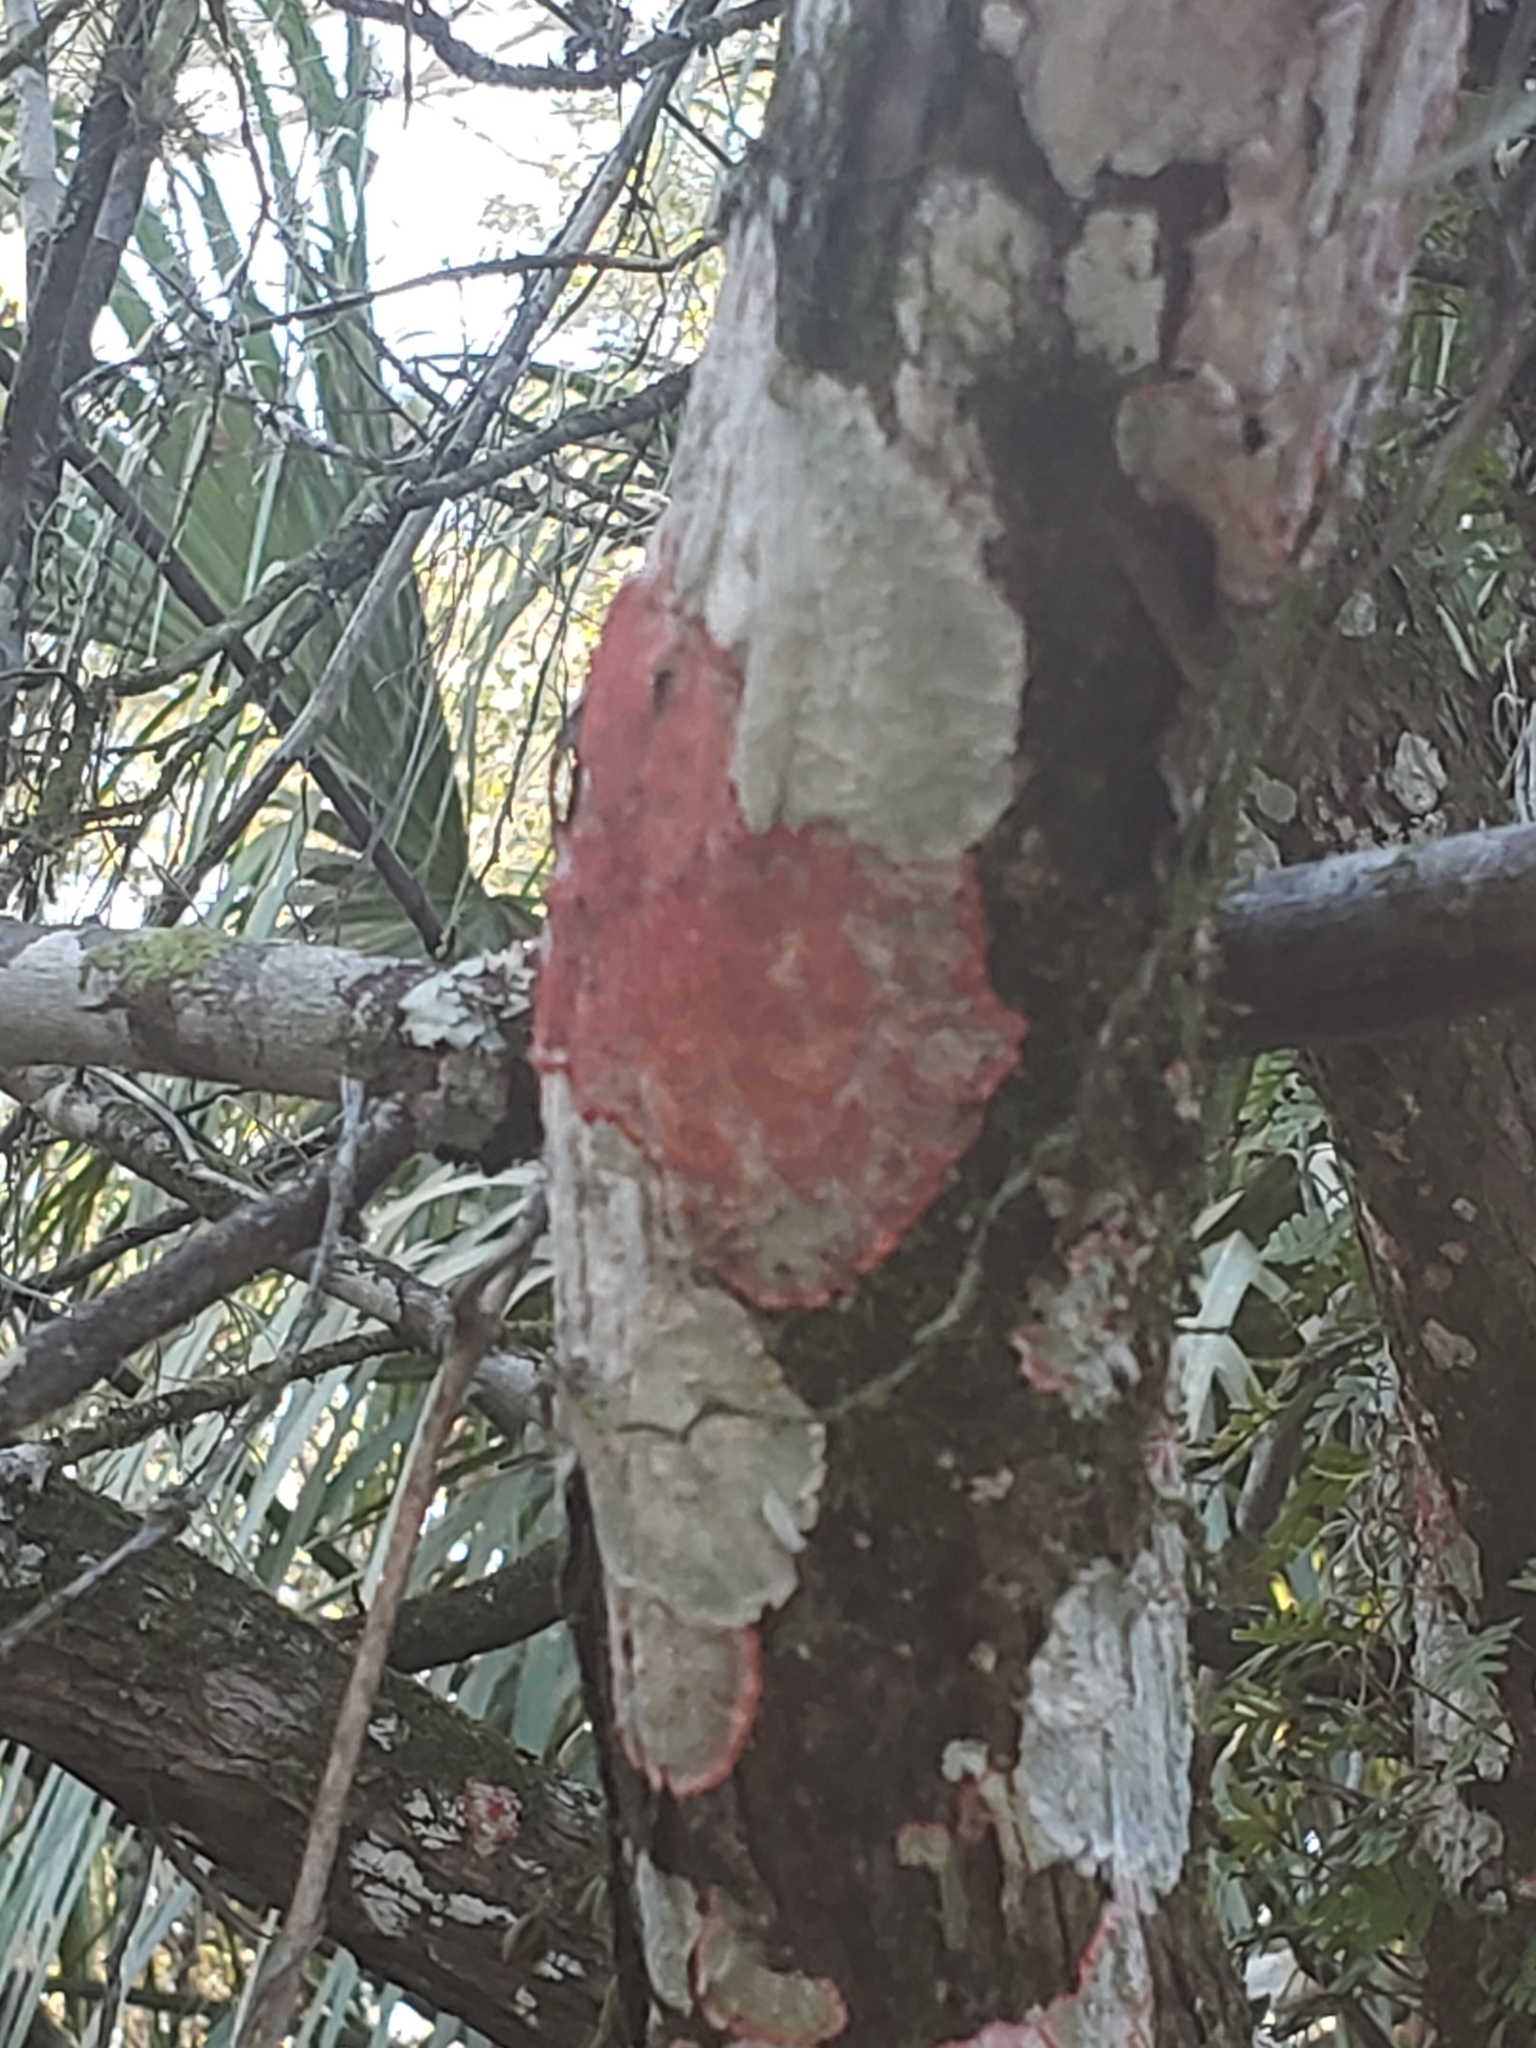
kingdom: Fungi
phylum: Ascomycota
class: Arthoniomycetes
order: Arthoniales
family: Arthoniaceae
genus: Herpothallon
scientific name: Herpothallon rubrocinctum
